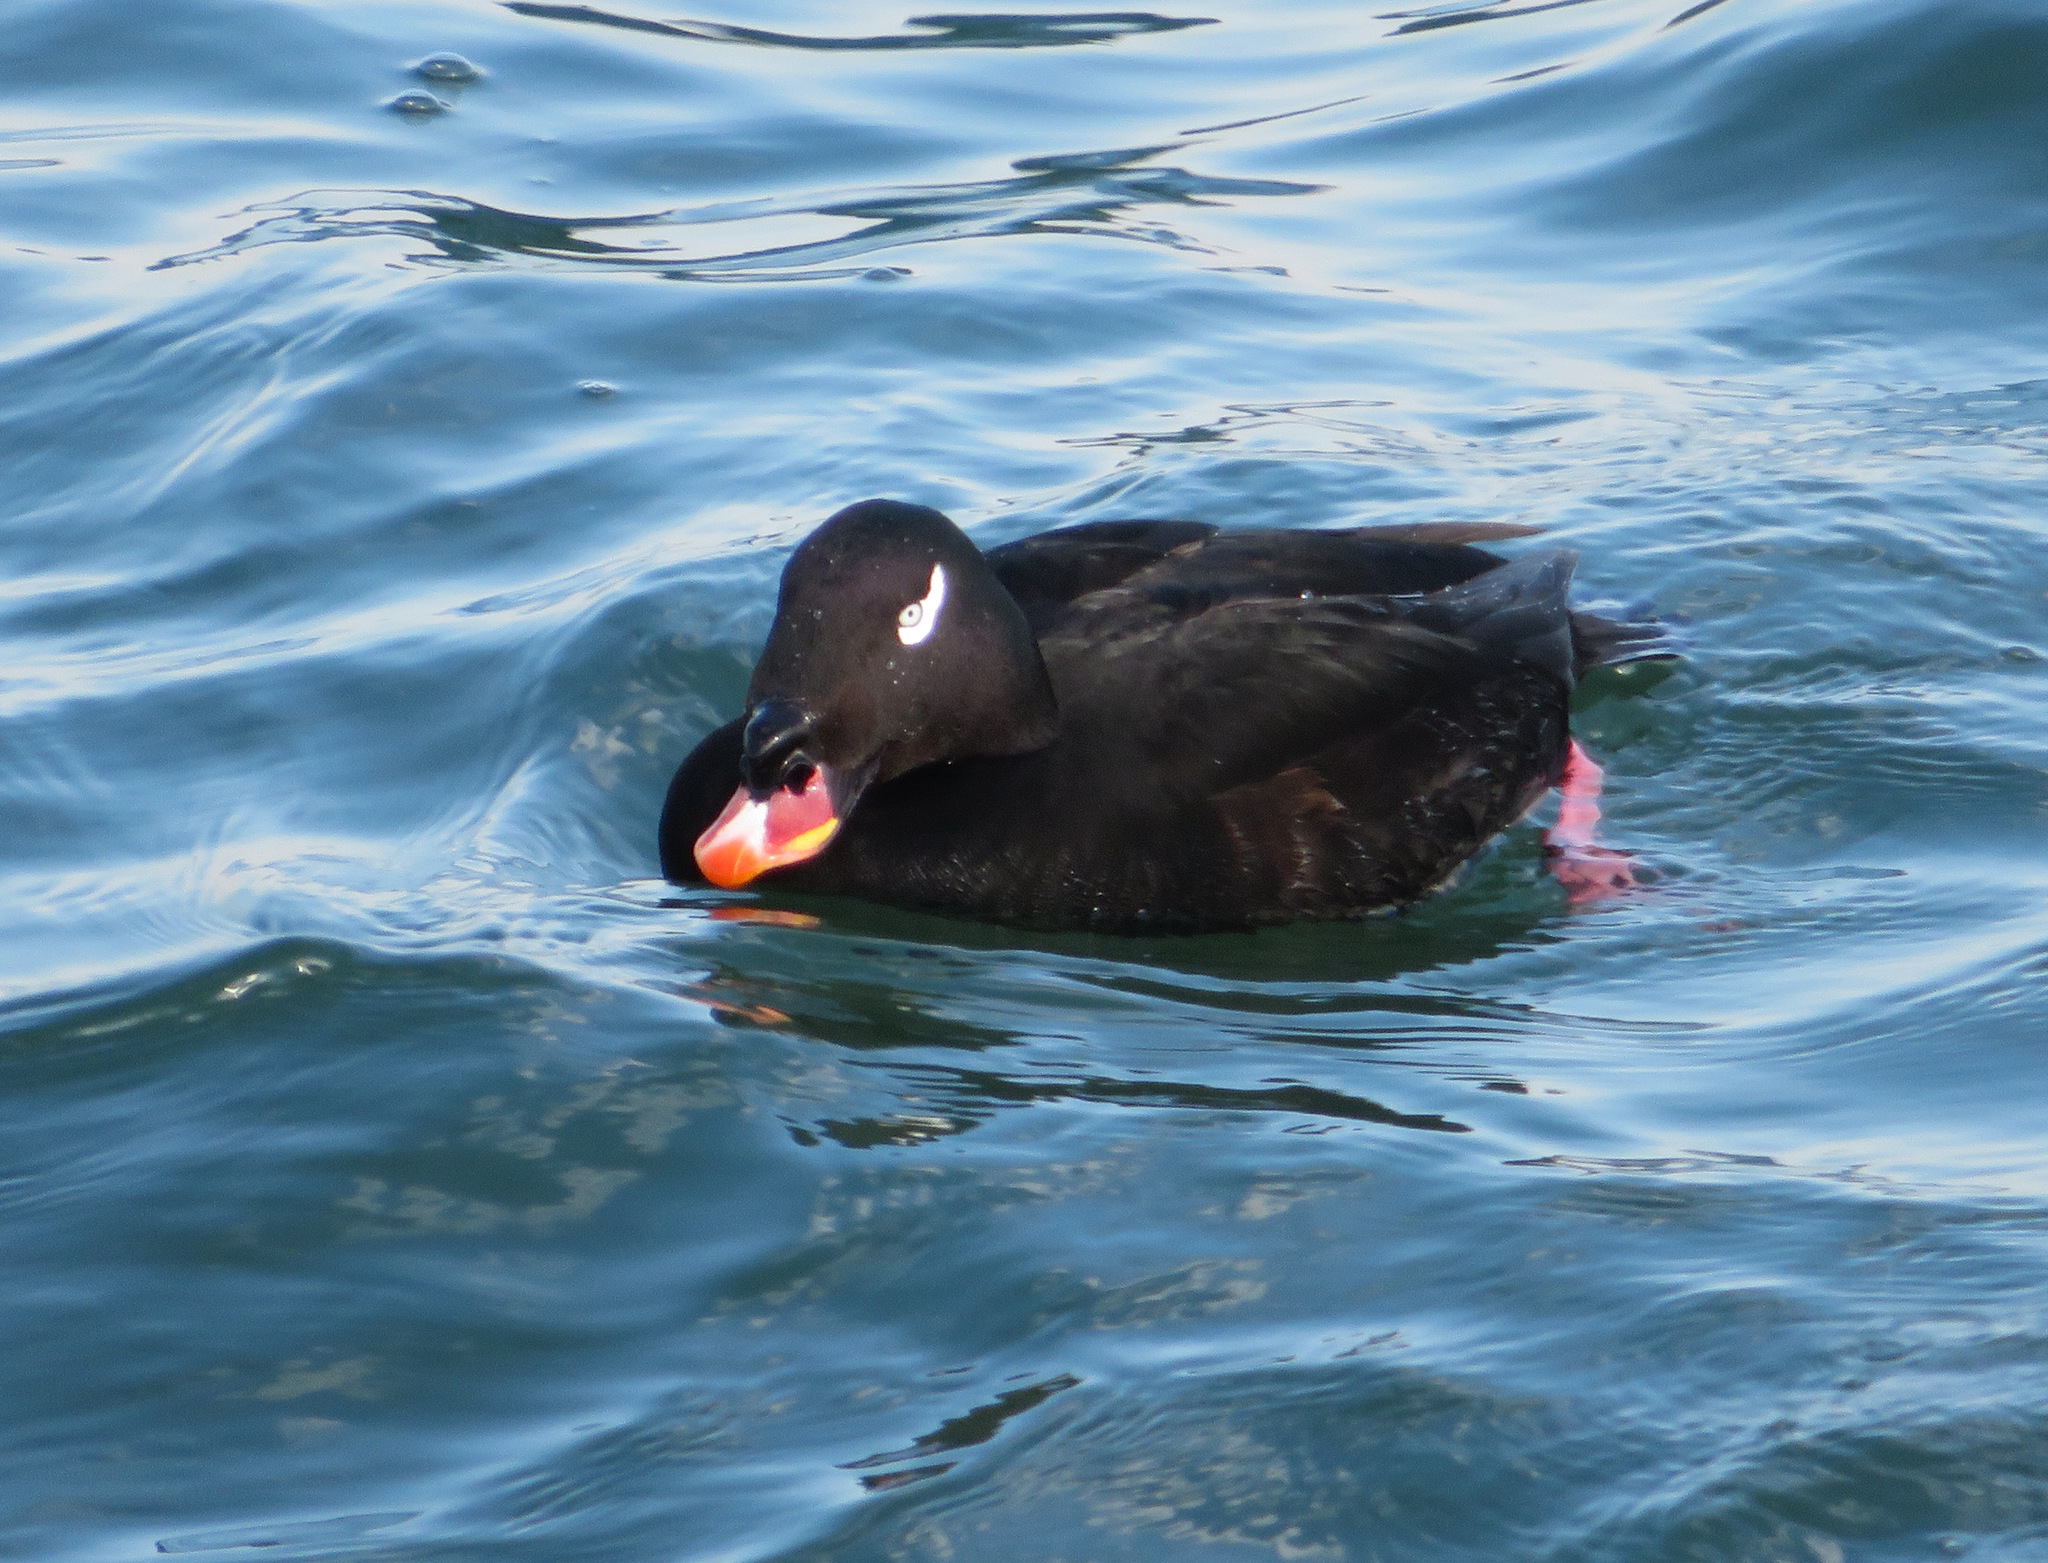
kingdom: Animalia
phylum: Chordata
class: Aves
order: Anseriformes
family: Anatidae
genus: Melanitta
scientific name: Melanitta stejnegeri
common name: Stejneger's scoter
